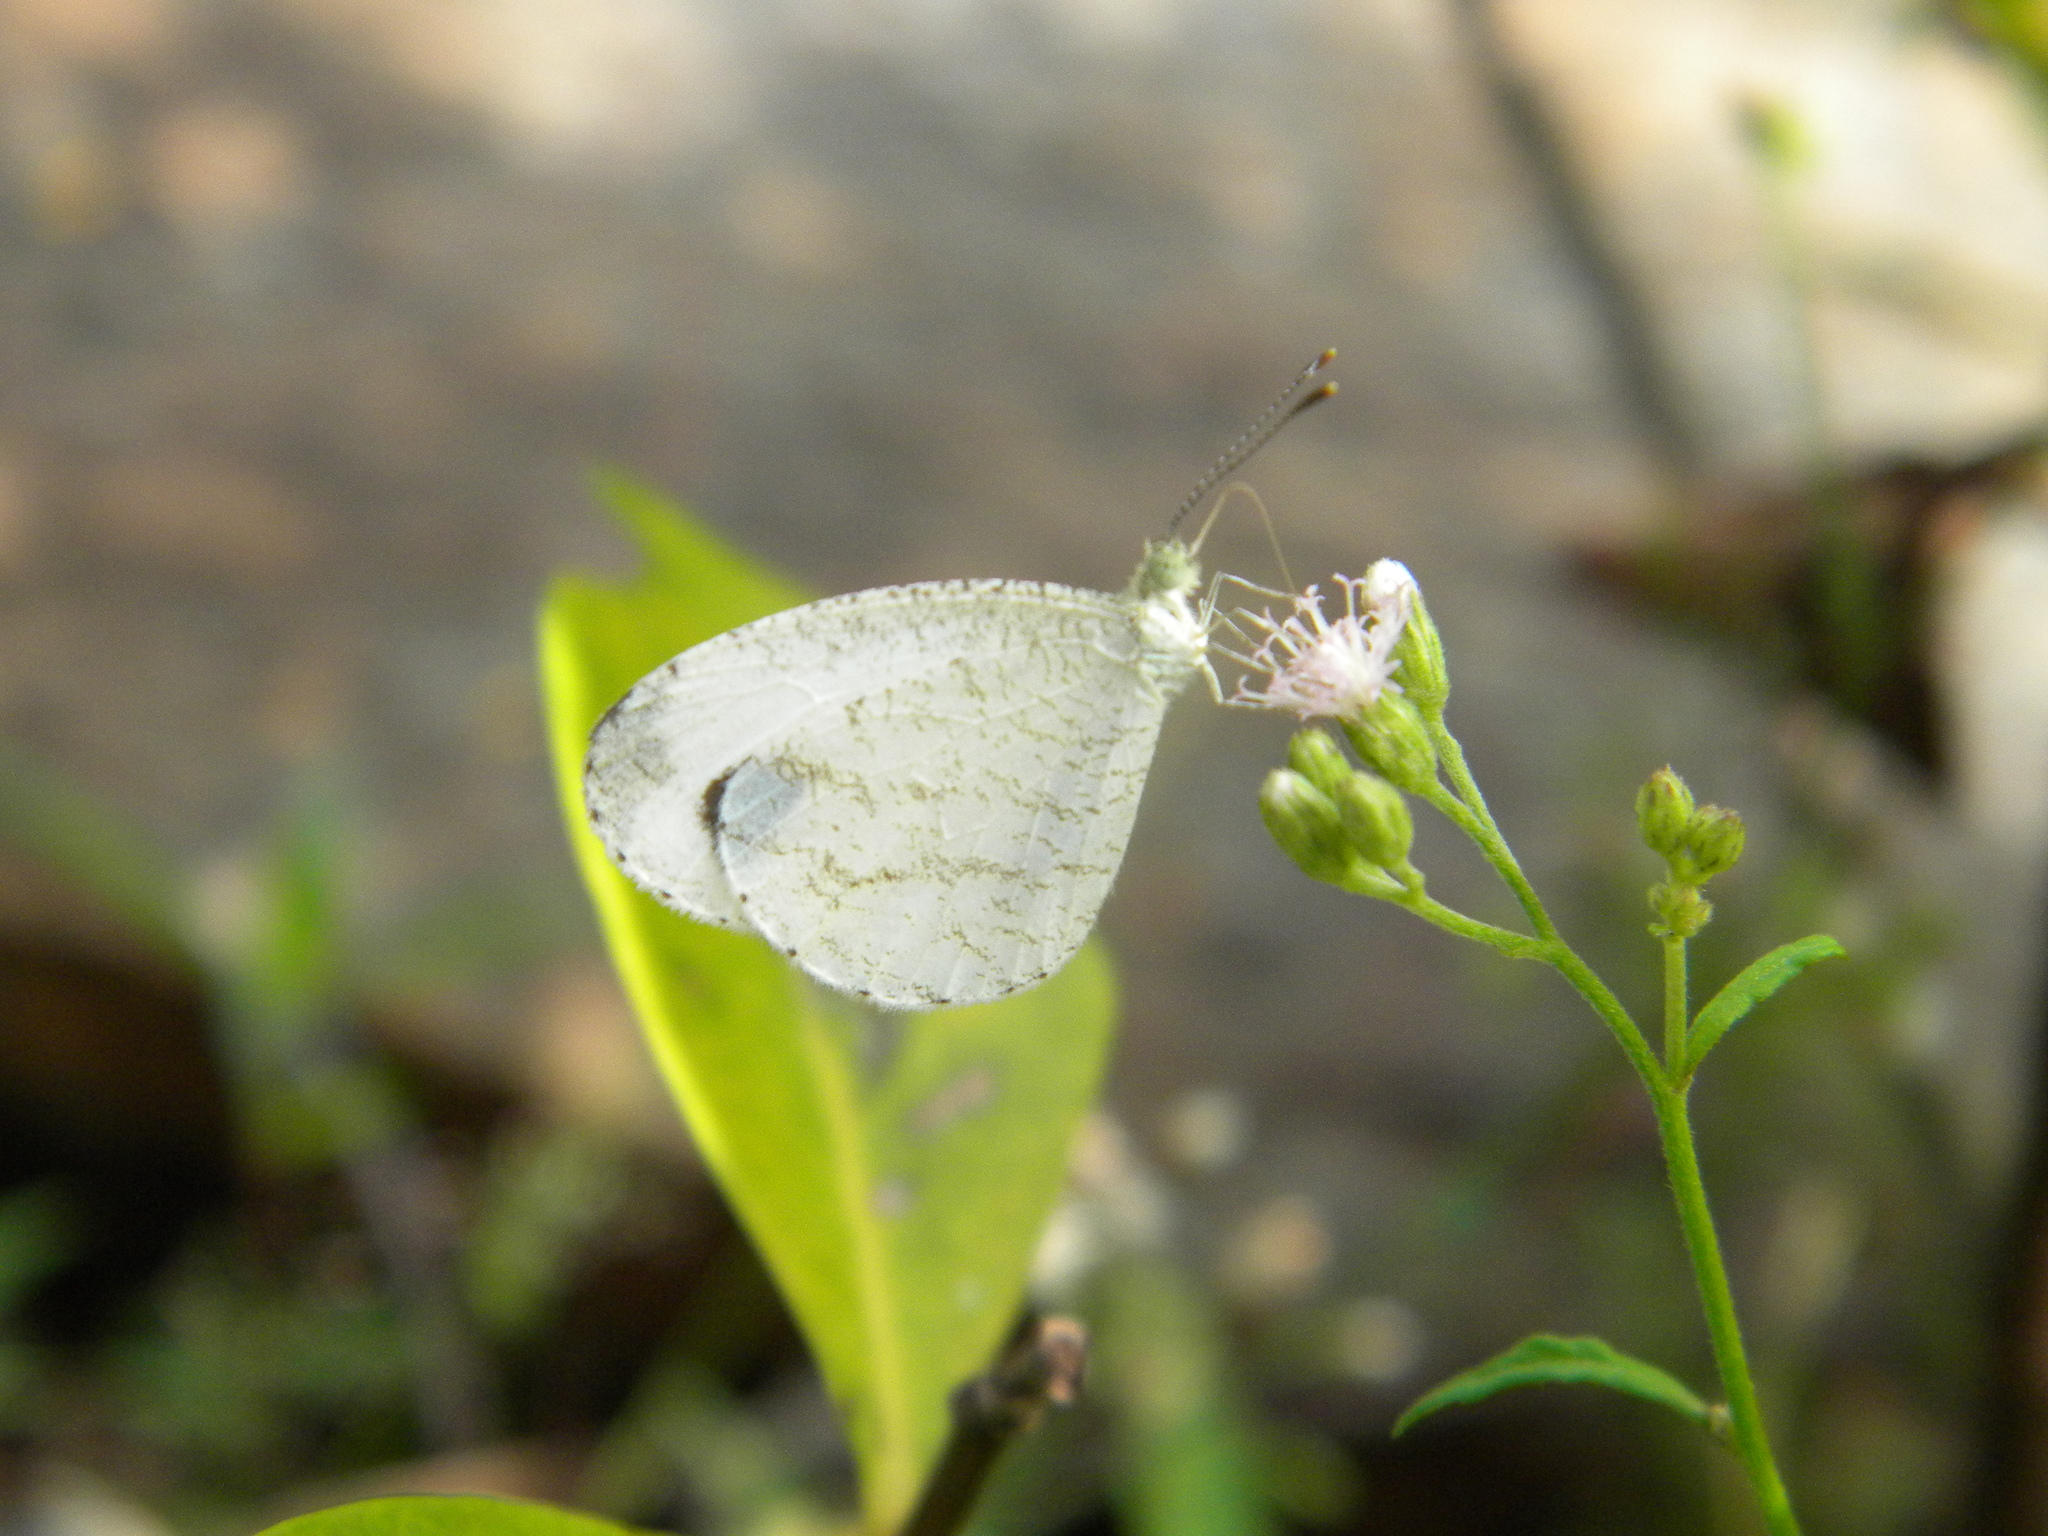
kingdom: Animalia
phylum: Arthropoda
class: Insecta
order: Lepidoptera
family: Pieridae
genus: Leptosia
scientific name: Leptosia nina
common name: Psyche
